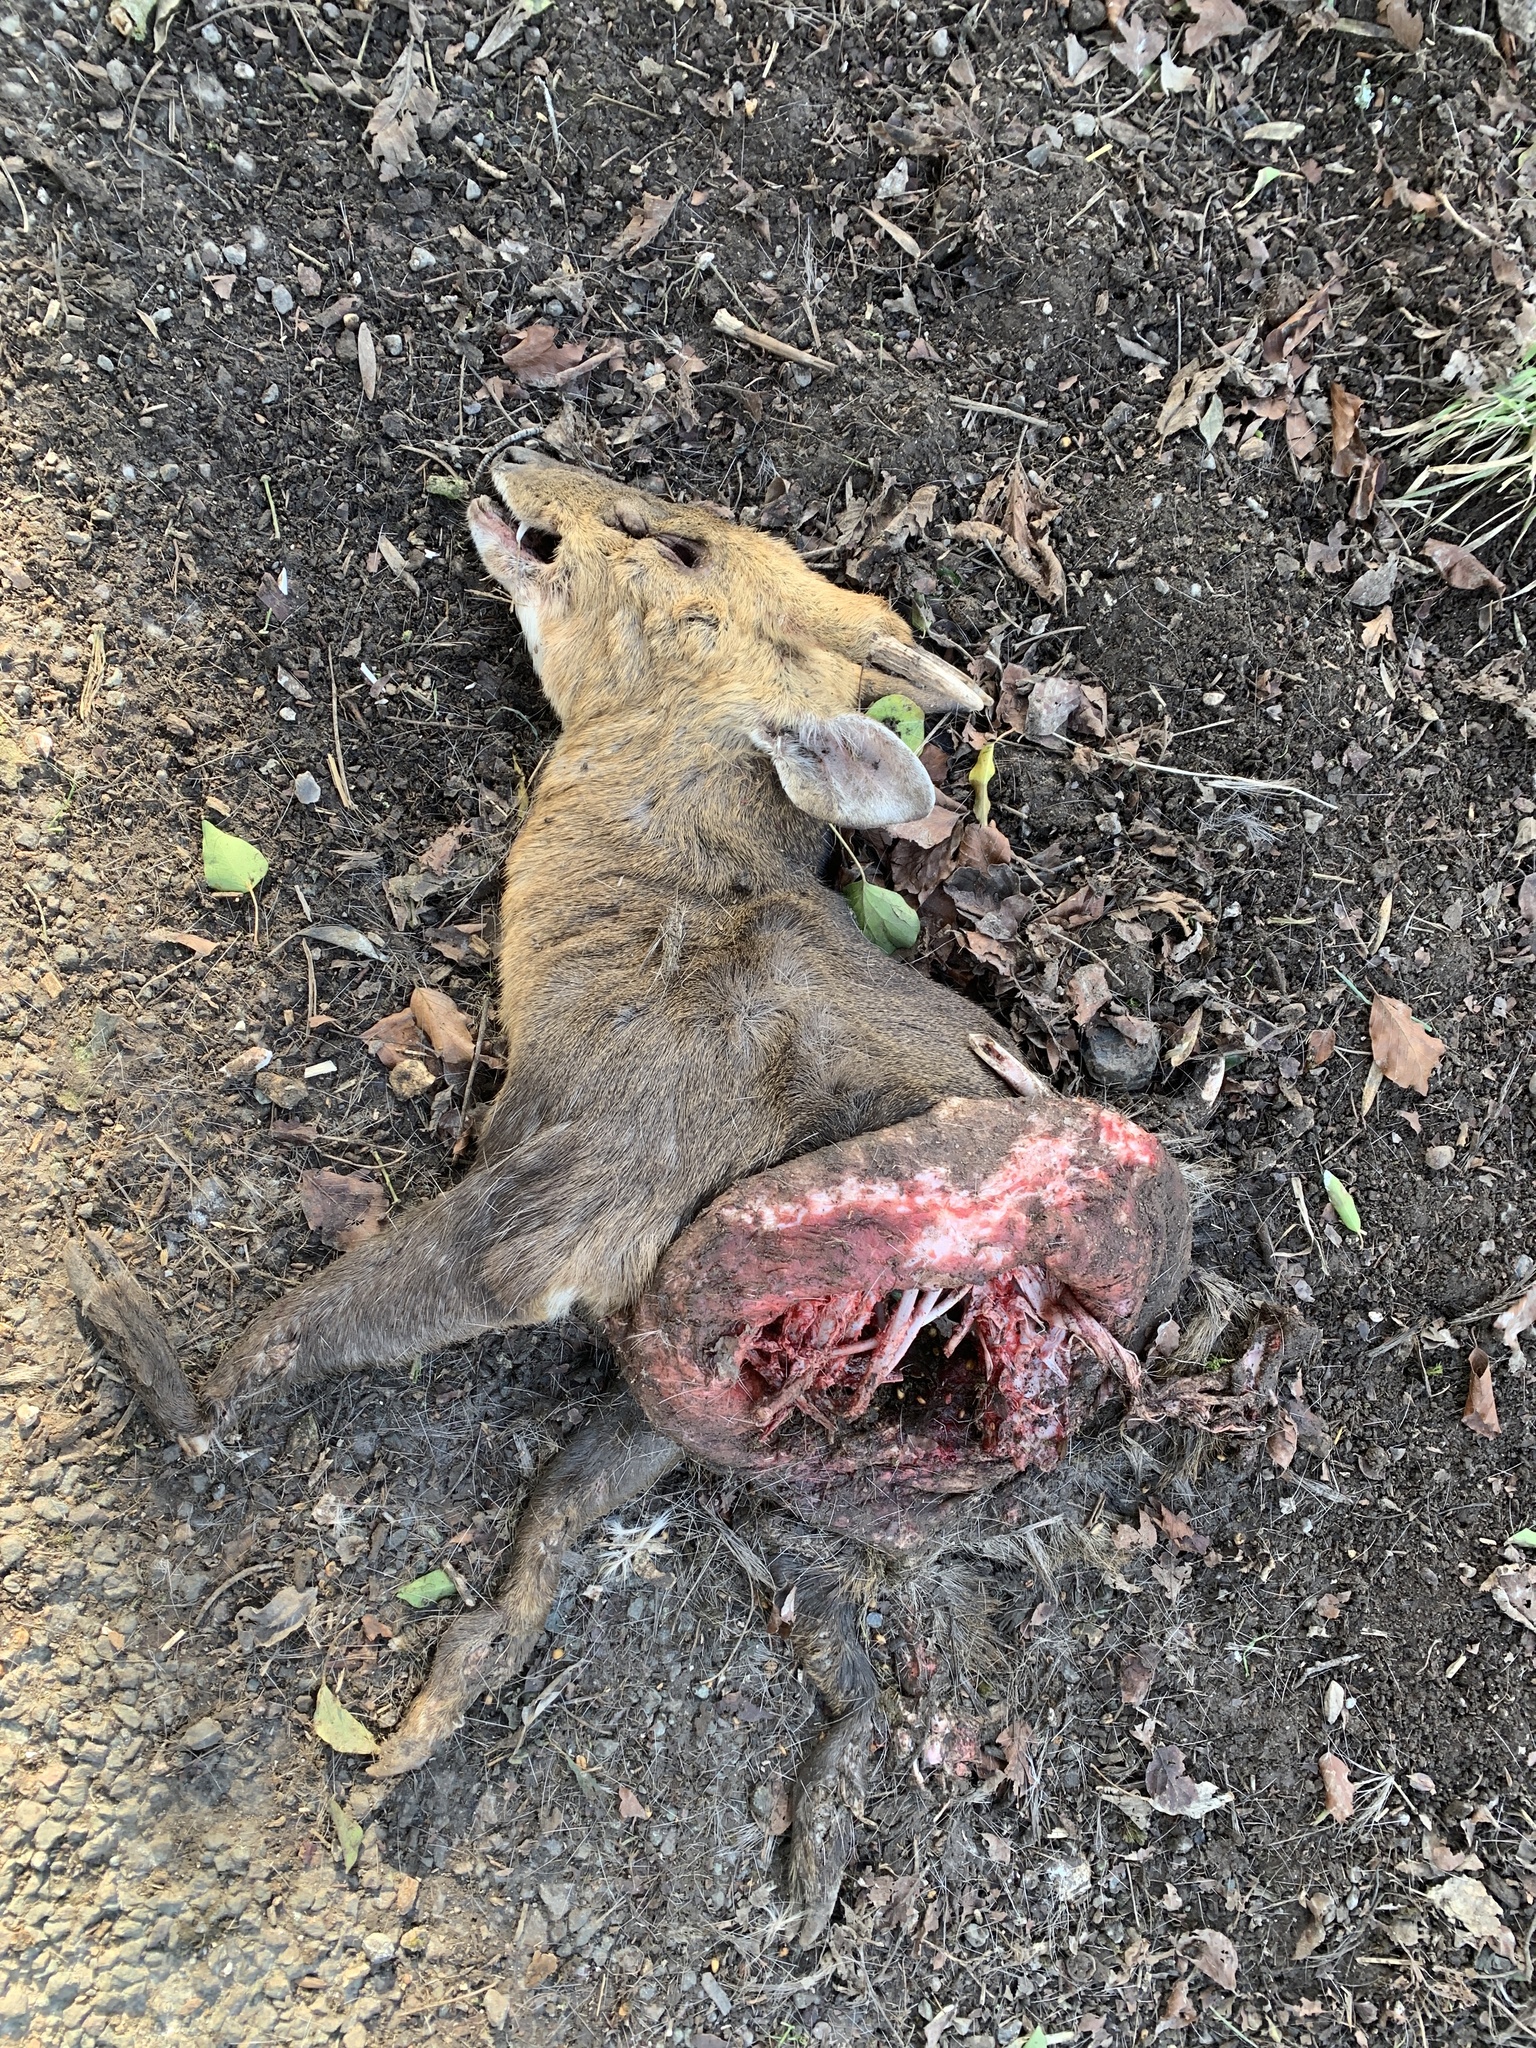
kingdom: Animalia
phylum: Chordata
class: Mammalia
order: Artiodactyla
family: Cervidae
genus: Muntiacus
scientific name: Muntiacus reevesi
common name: Reeves' muntjac
